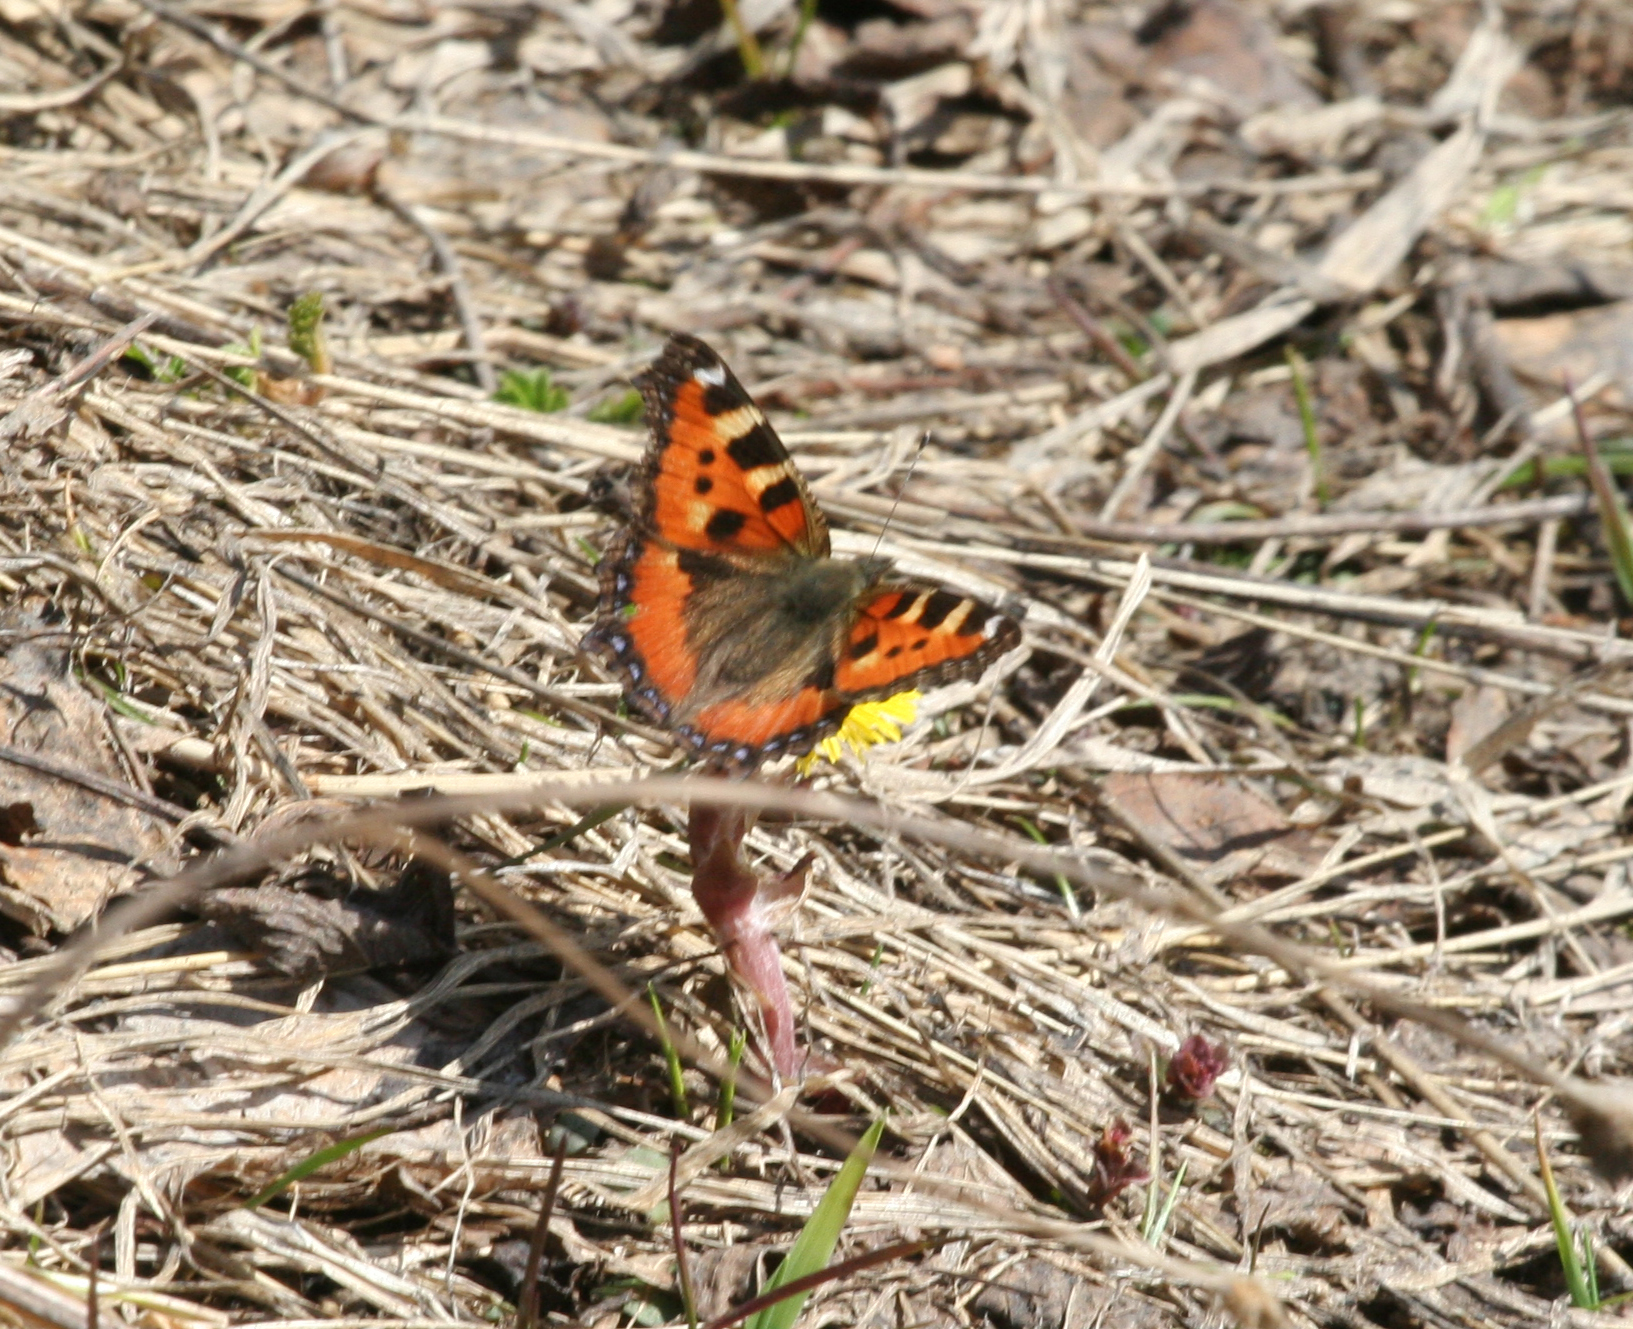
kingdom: Animalia
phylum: Arthropoda
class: Insecta
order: Lepidoptera
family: Nymphalidae
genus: Aglais
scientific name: Aglais urticae
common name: Small tortoiseshell
